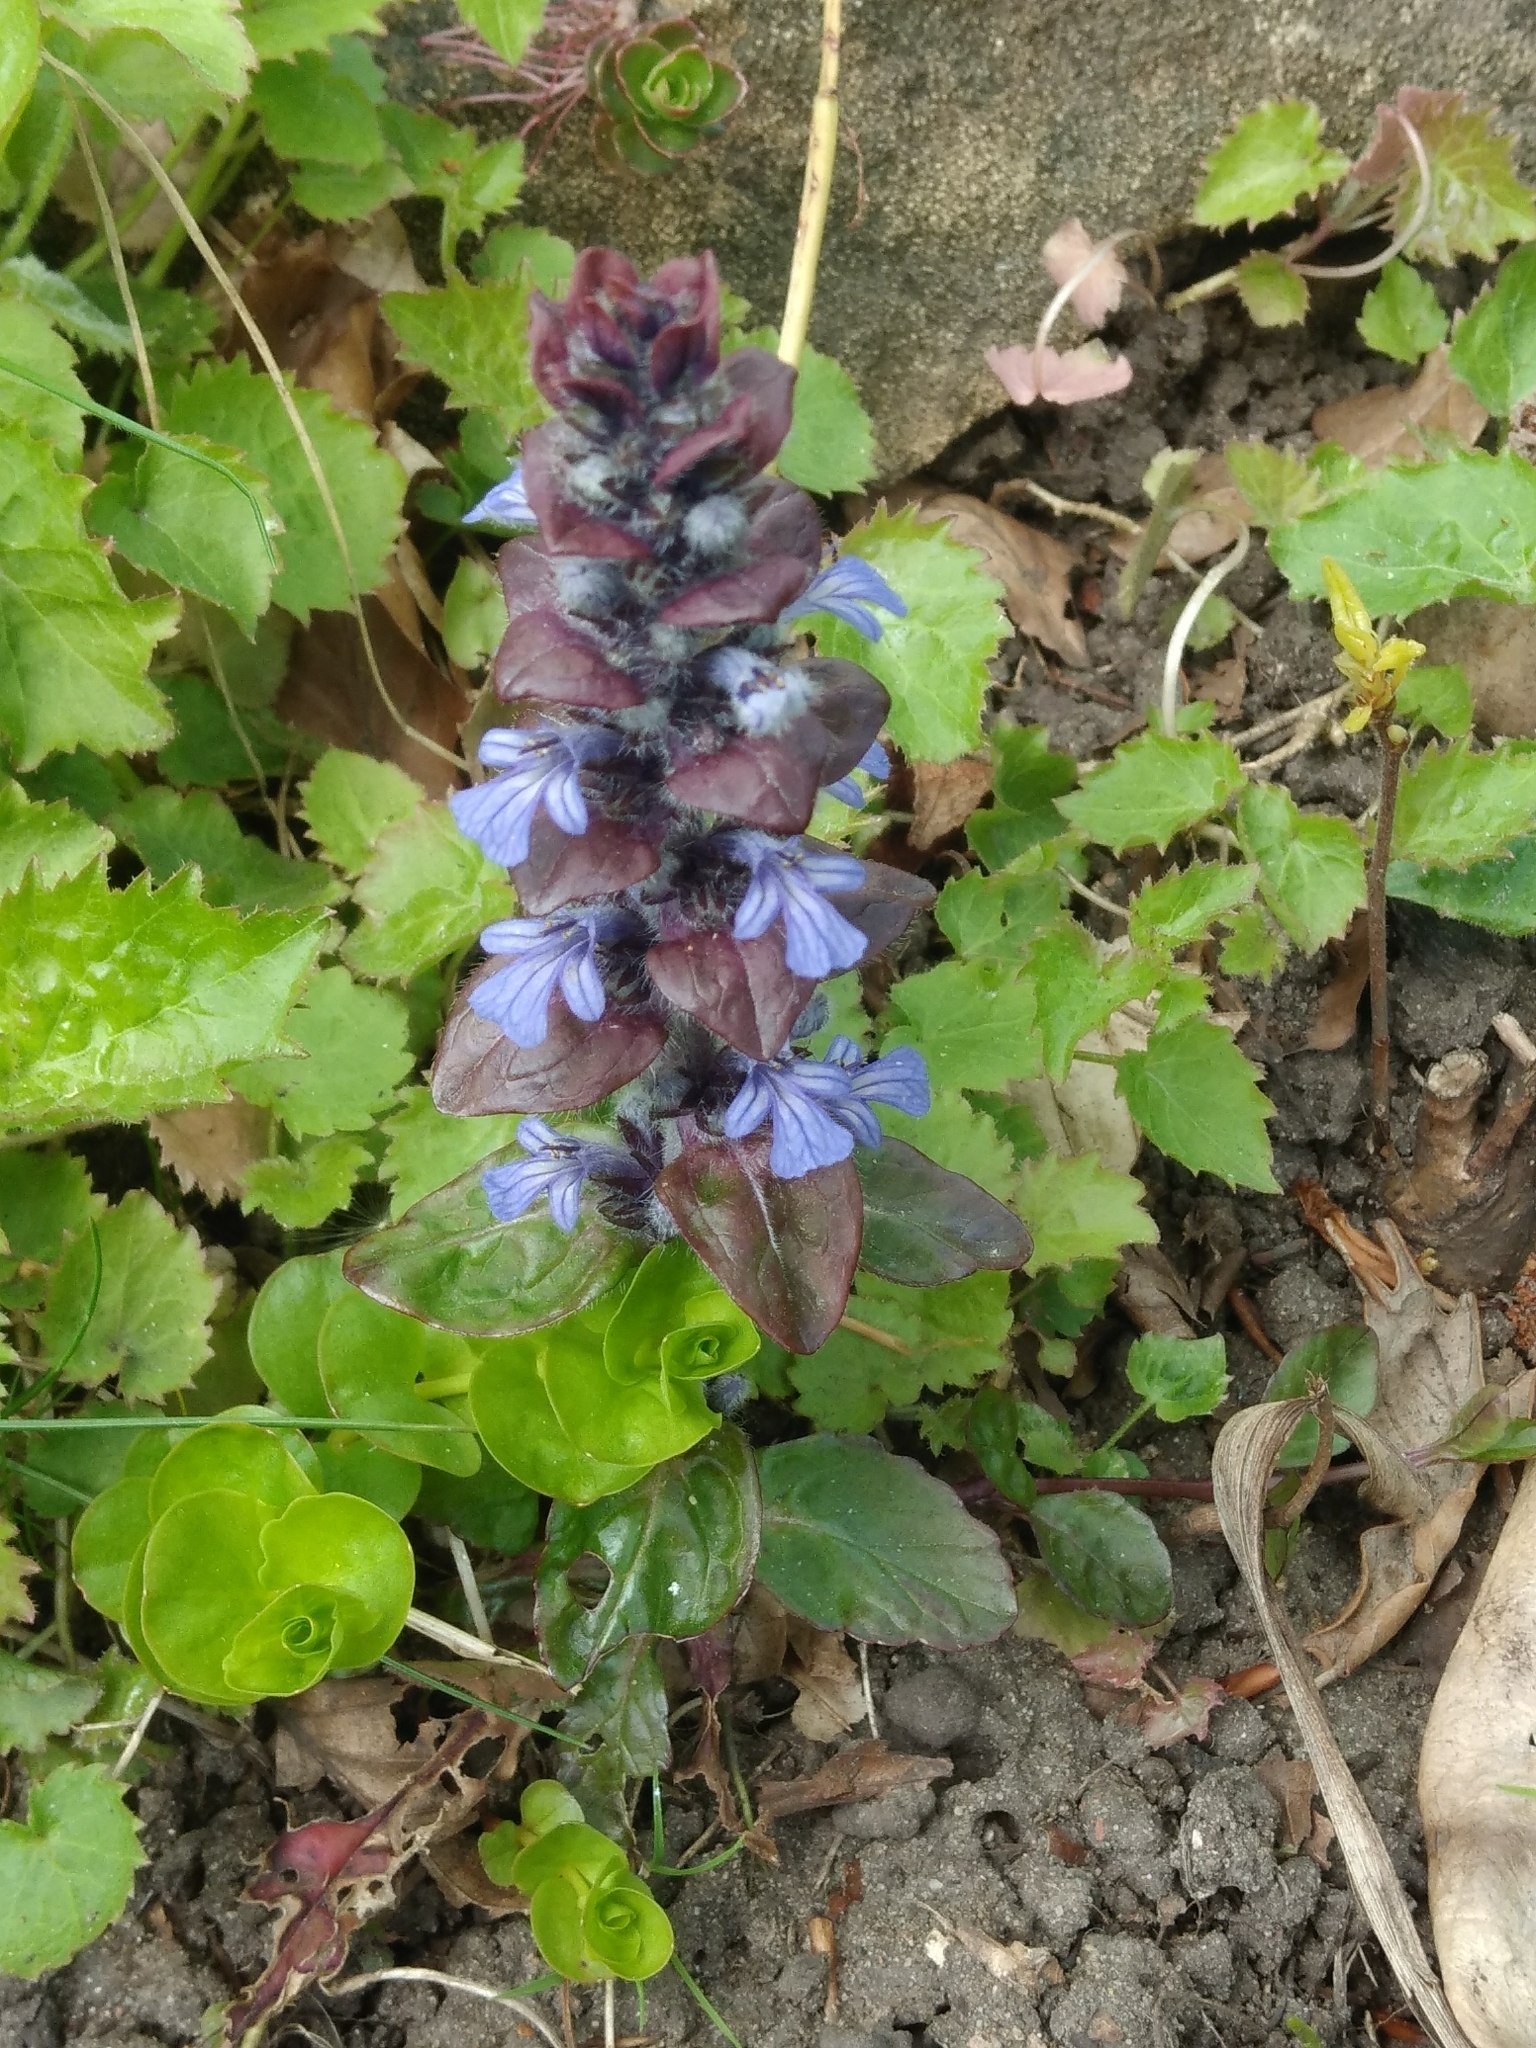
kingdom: Plantae
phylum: Tracheophyta
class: Magnoliopsida
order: Lamiales
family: Lamiaceae
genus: Ajuga
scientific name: Ajuga reptans
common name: Bugle
